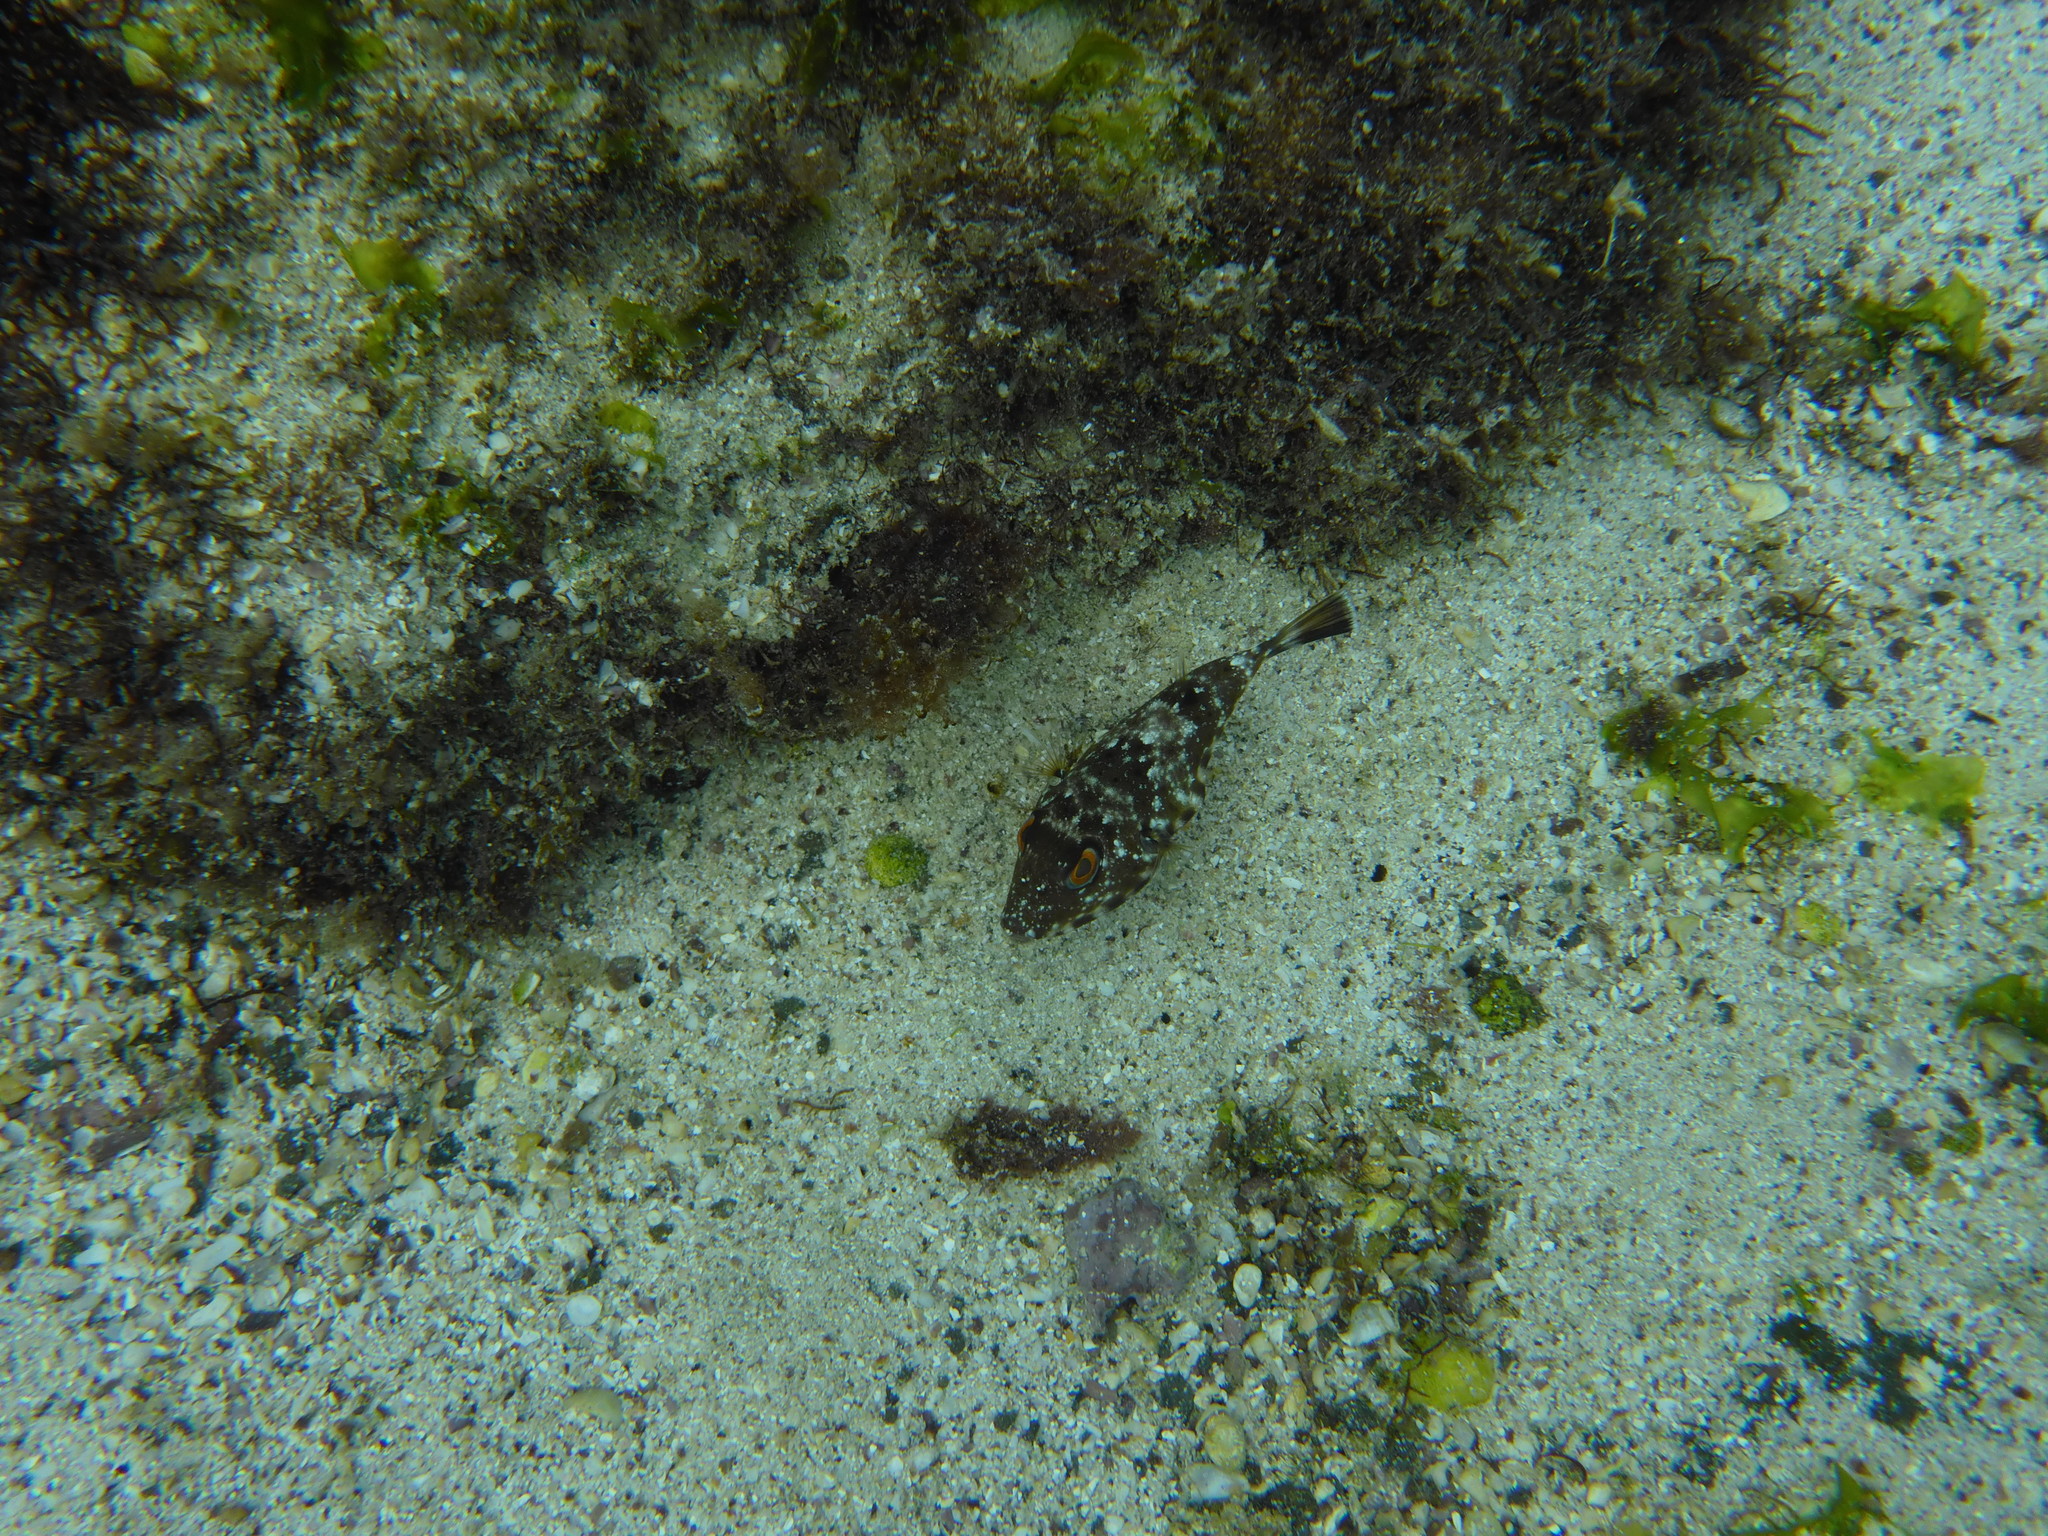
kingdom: Animalia
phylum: Chordata
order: Tetraodontiformes
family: Tetraodontidae
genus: Sphoeroides
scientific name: Sphoeroides lobatus
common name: Longnose puffer
